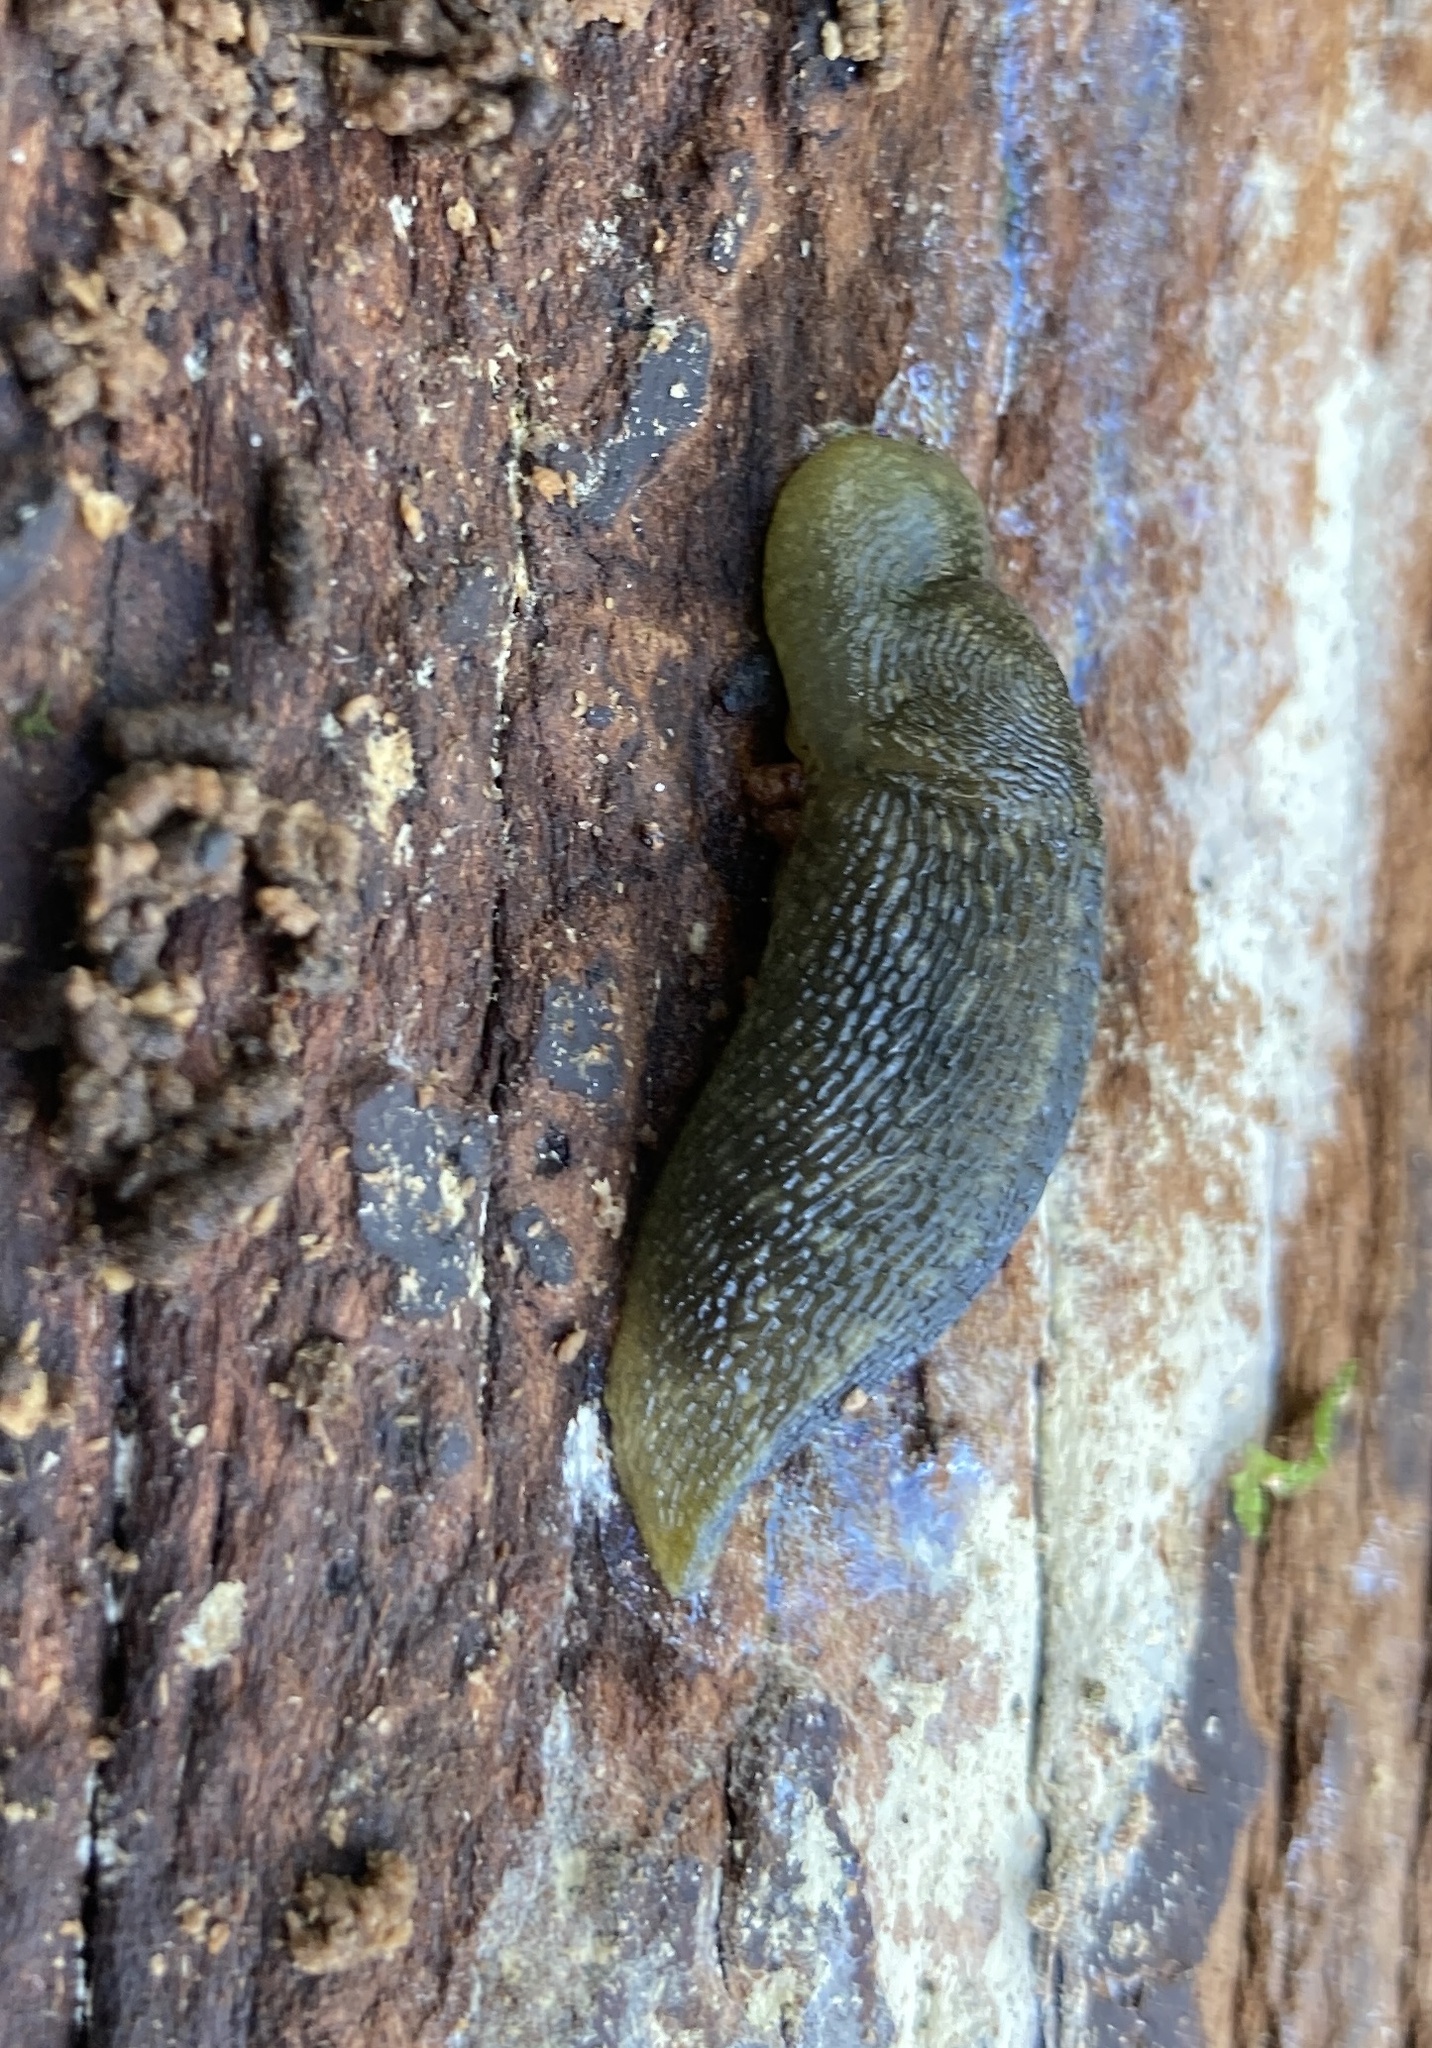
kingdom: Animalia
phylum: Mollusca
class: Gastropoda
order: Stylommatophora
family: Limacidae
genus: Limacus
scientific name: Limacus flavus
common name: Yellow gardenslug
